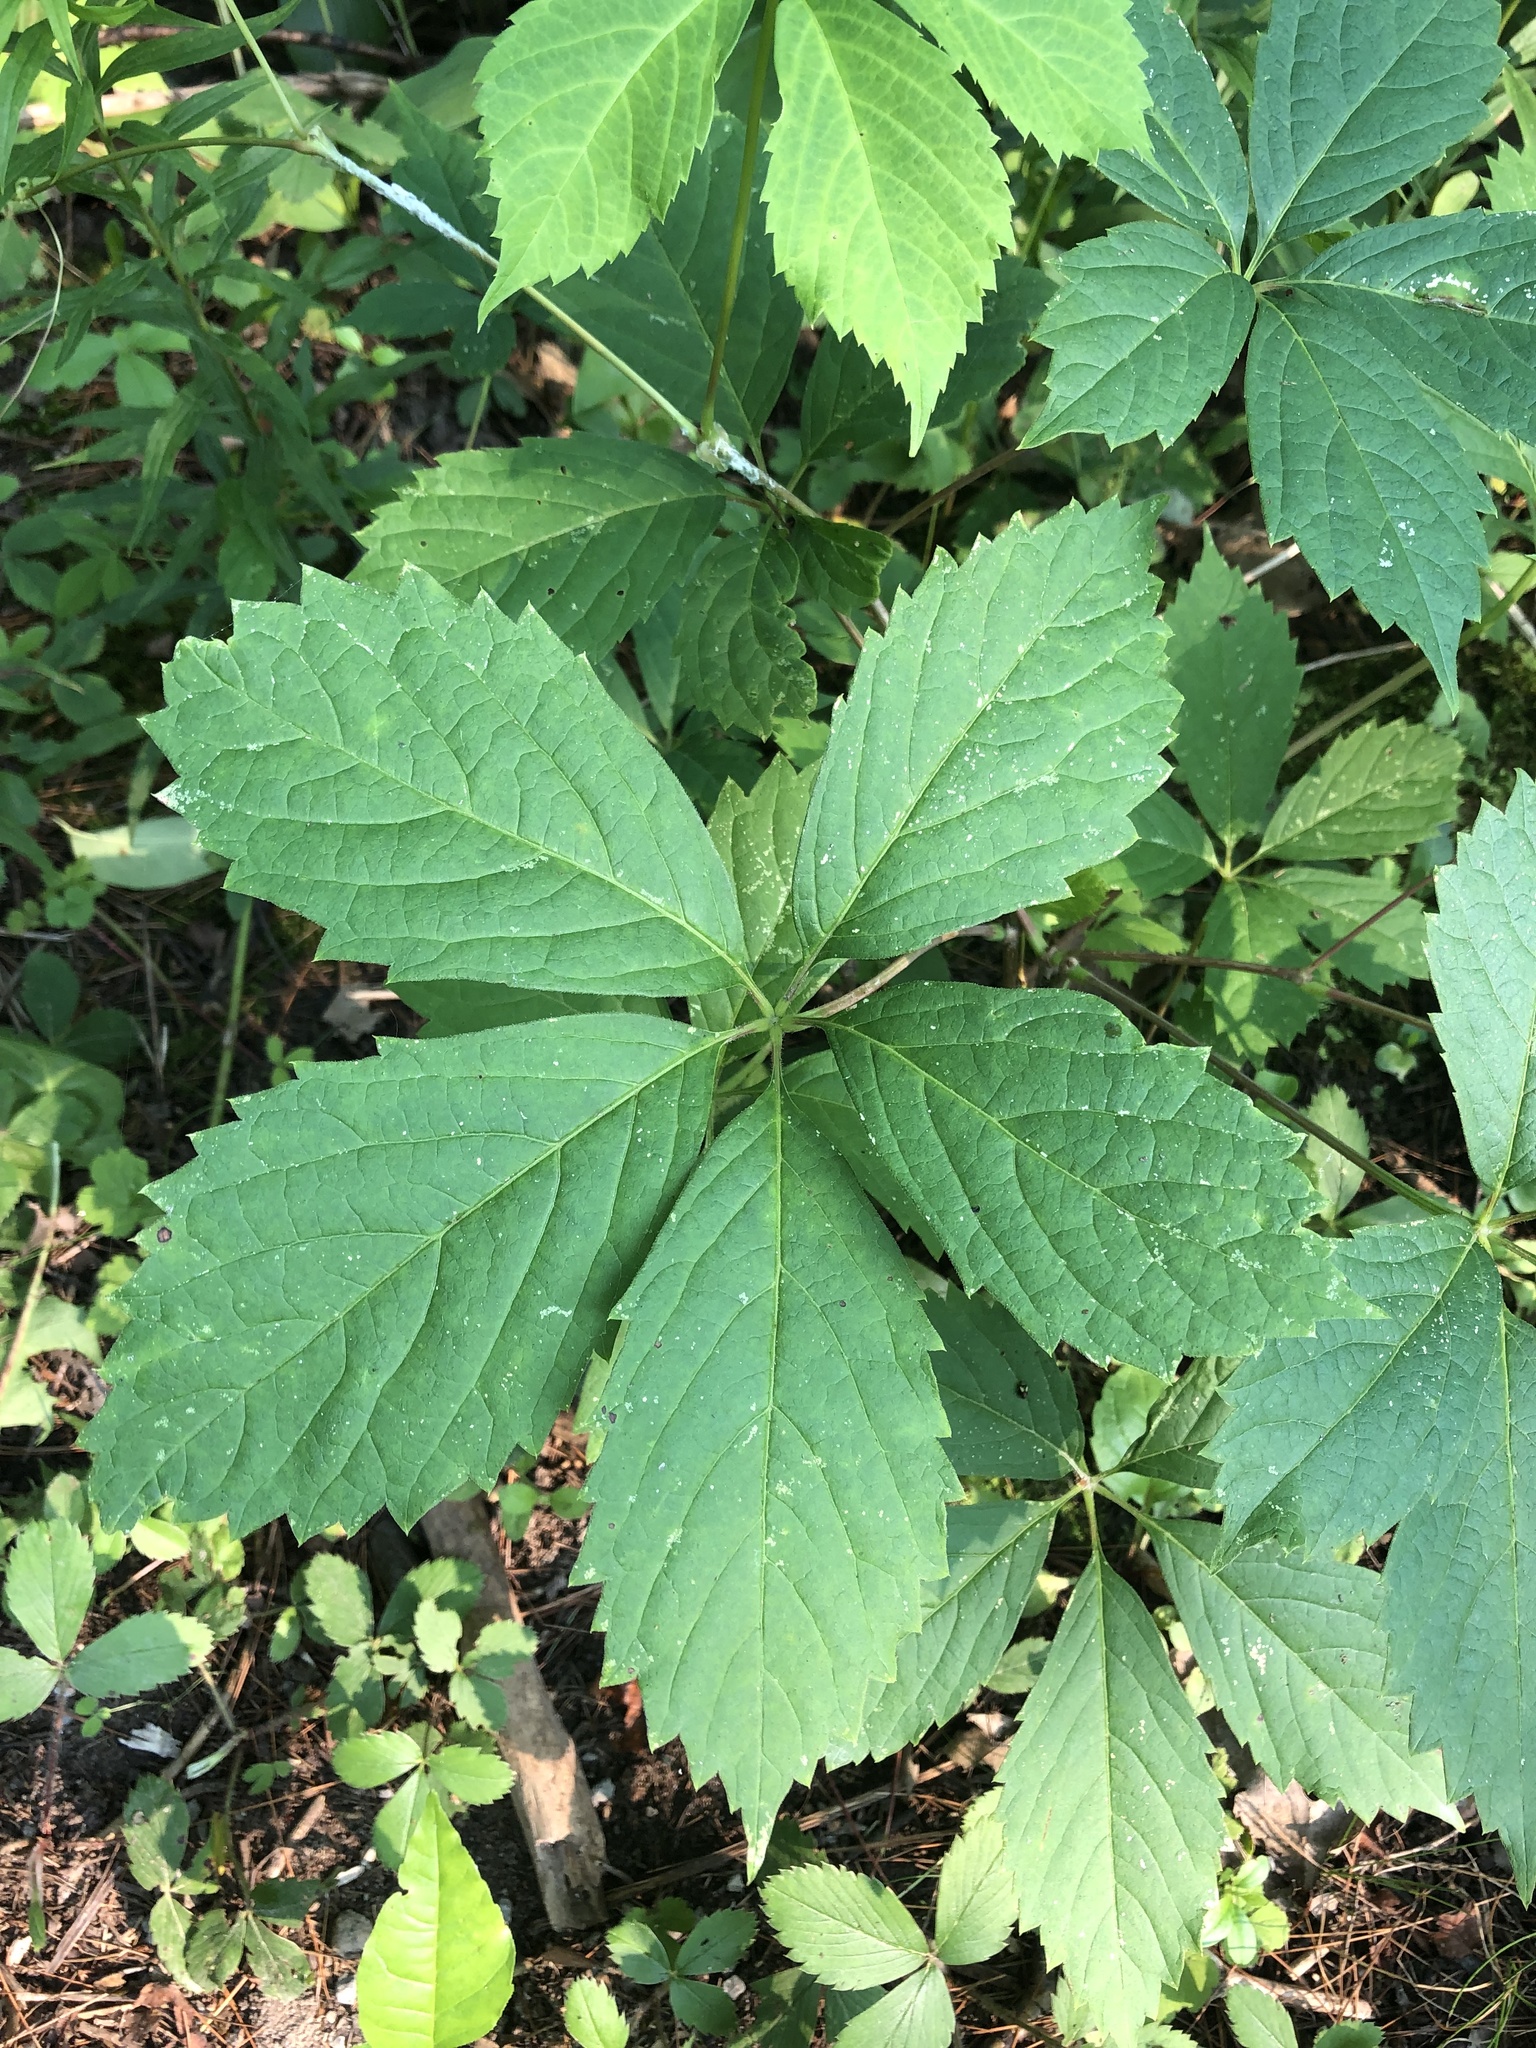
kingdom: Plantae
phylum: Tracheophyta
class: Magnoliopsida
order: Vitales
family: Vitaceae
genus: Parthenocissus
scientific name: Parthenocissus inserta
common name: False virginia-creeper
